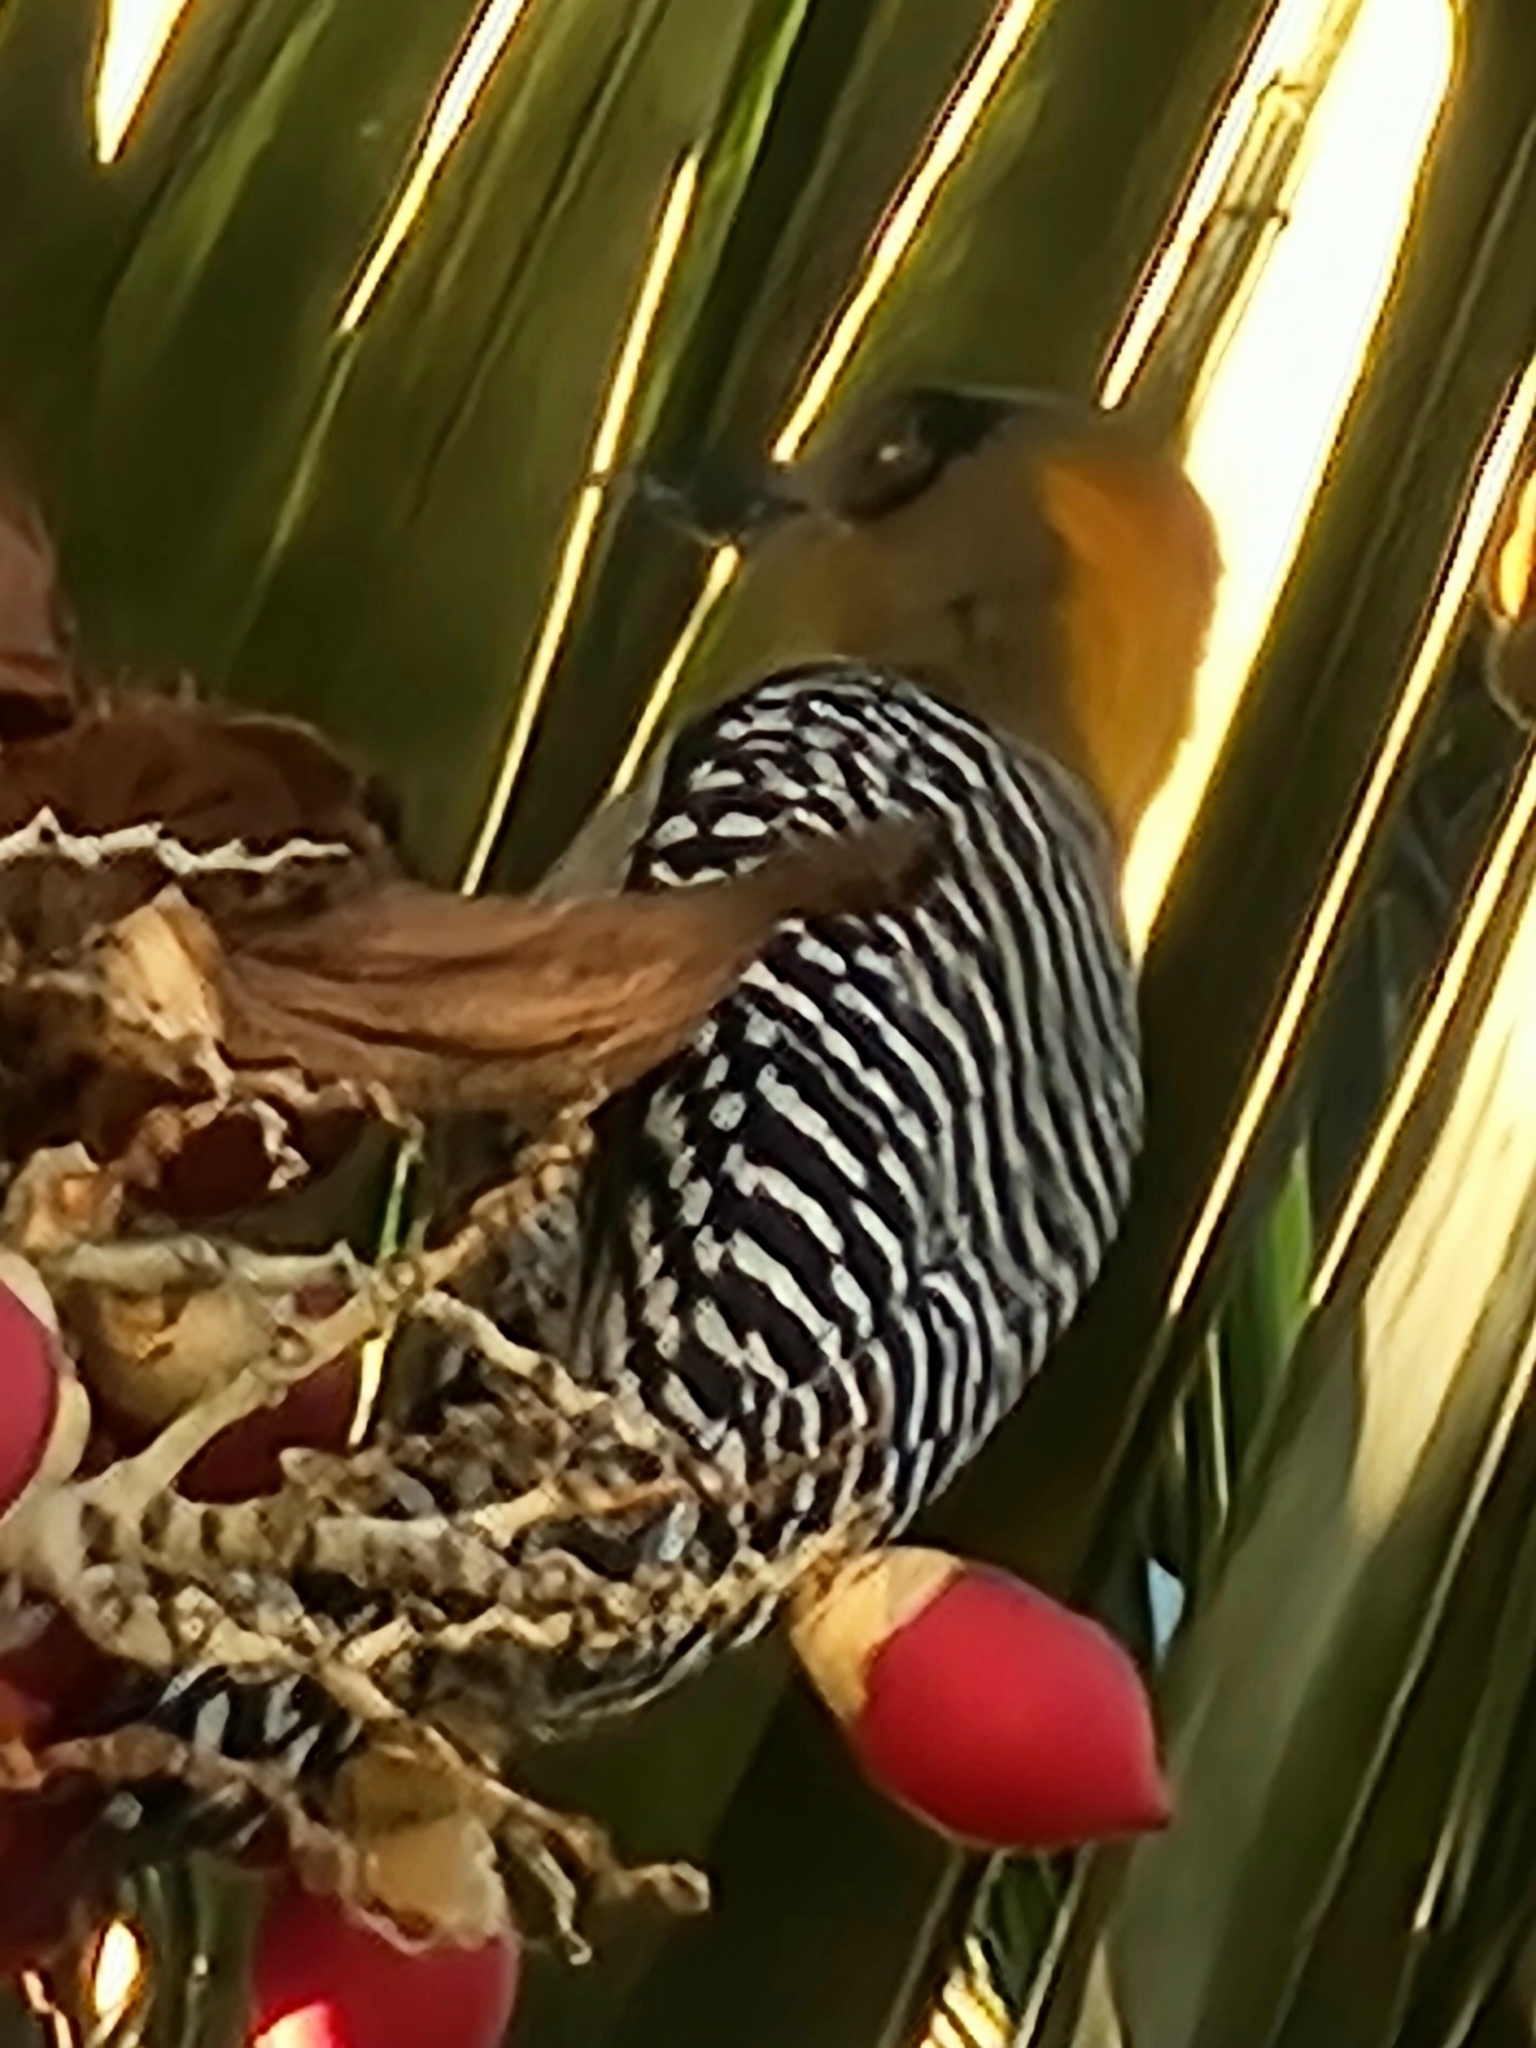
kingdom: Animalia
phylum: Chordata
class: Aves
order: Piciformes
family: Picidae
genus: Melanerpes
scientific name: Melanerpes chrysogenys
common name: Golden-cheeked woodpecker
